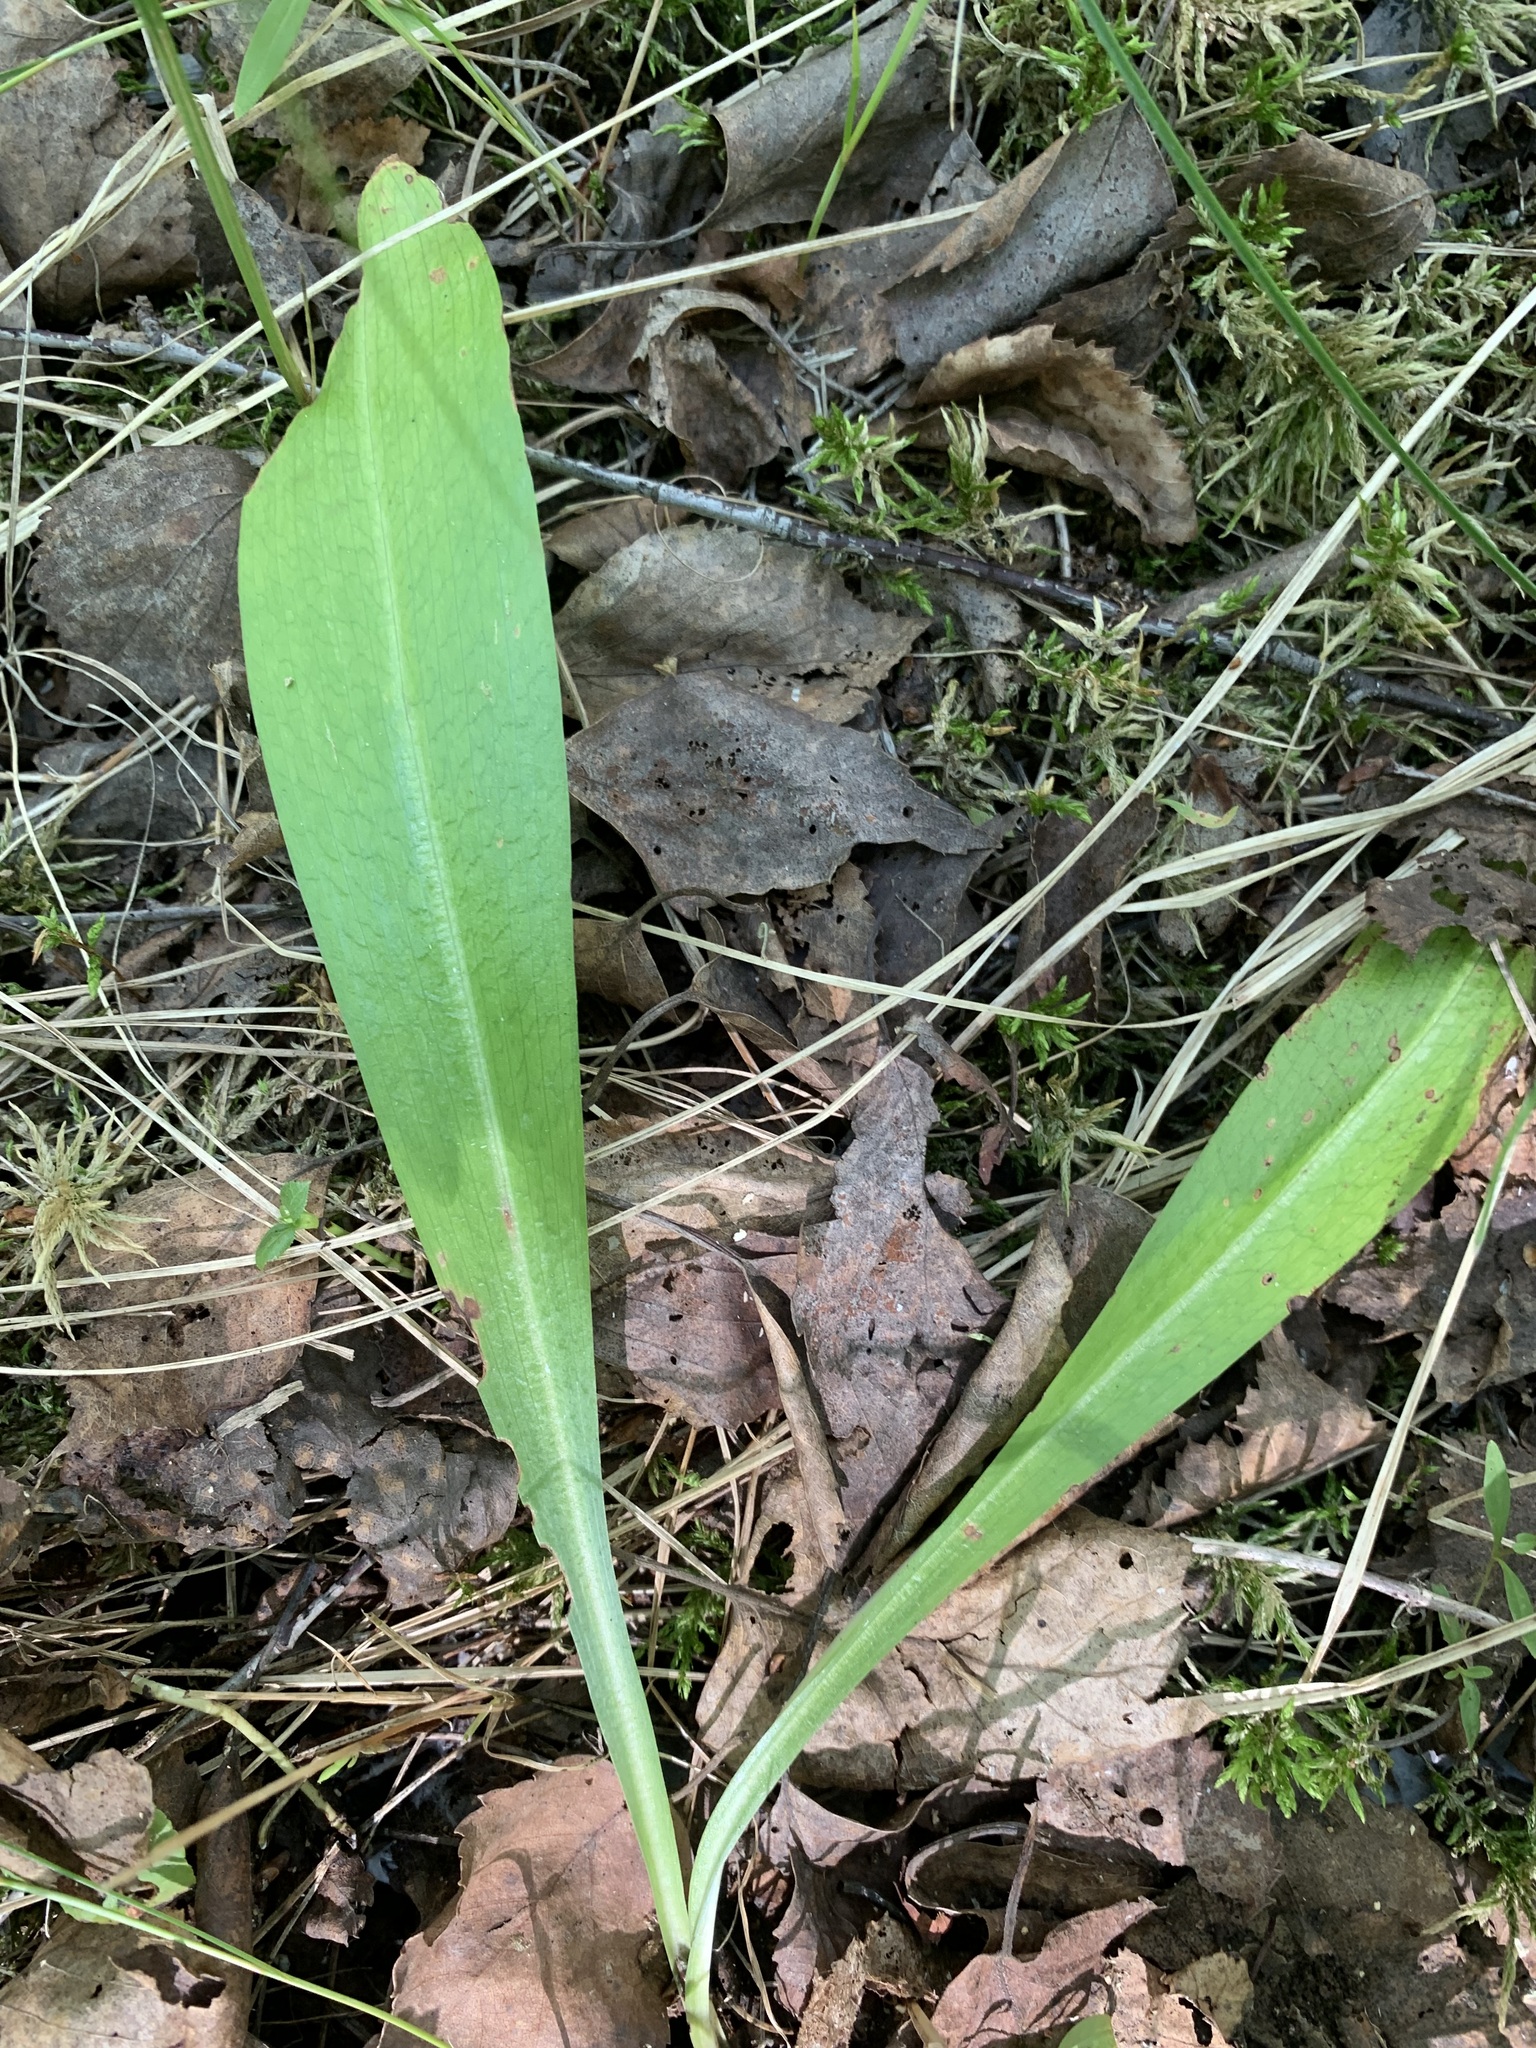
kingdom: Plantae
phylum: Tracheophyta
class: Liliopsida
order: Asparagales
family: Orchidaceae
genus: Platanthera
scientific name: Platanthera bifolia
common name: Lesser butterfly-orchid
